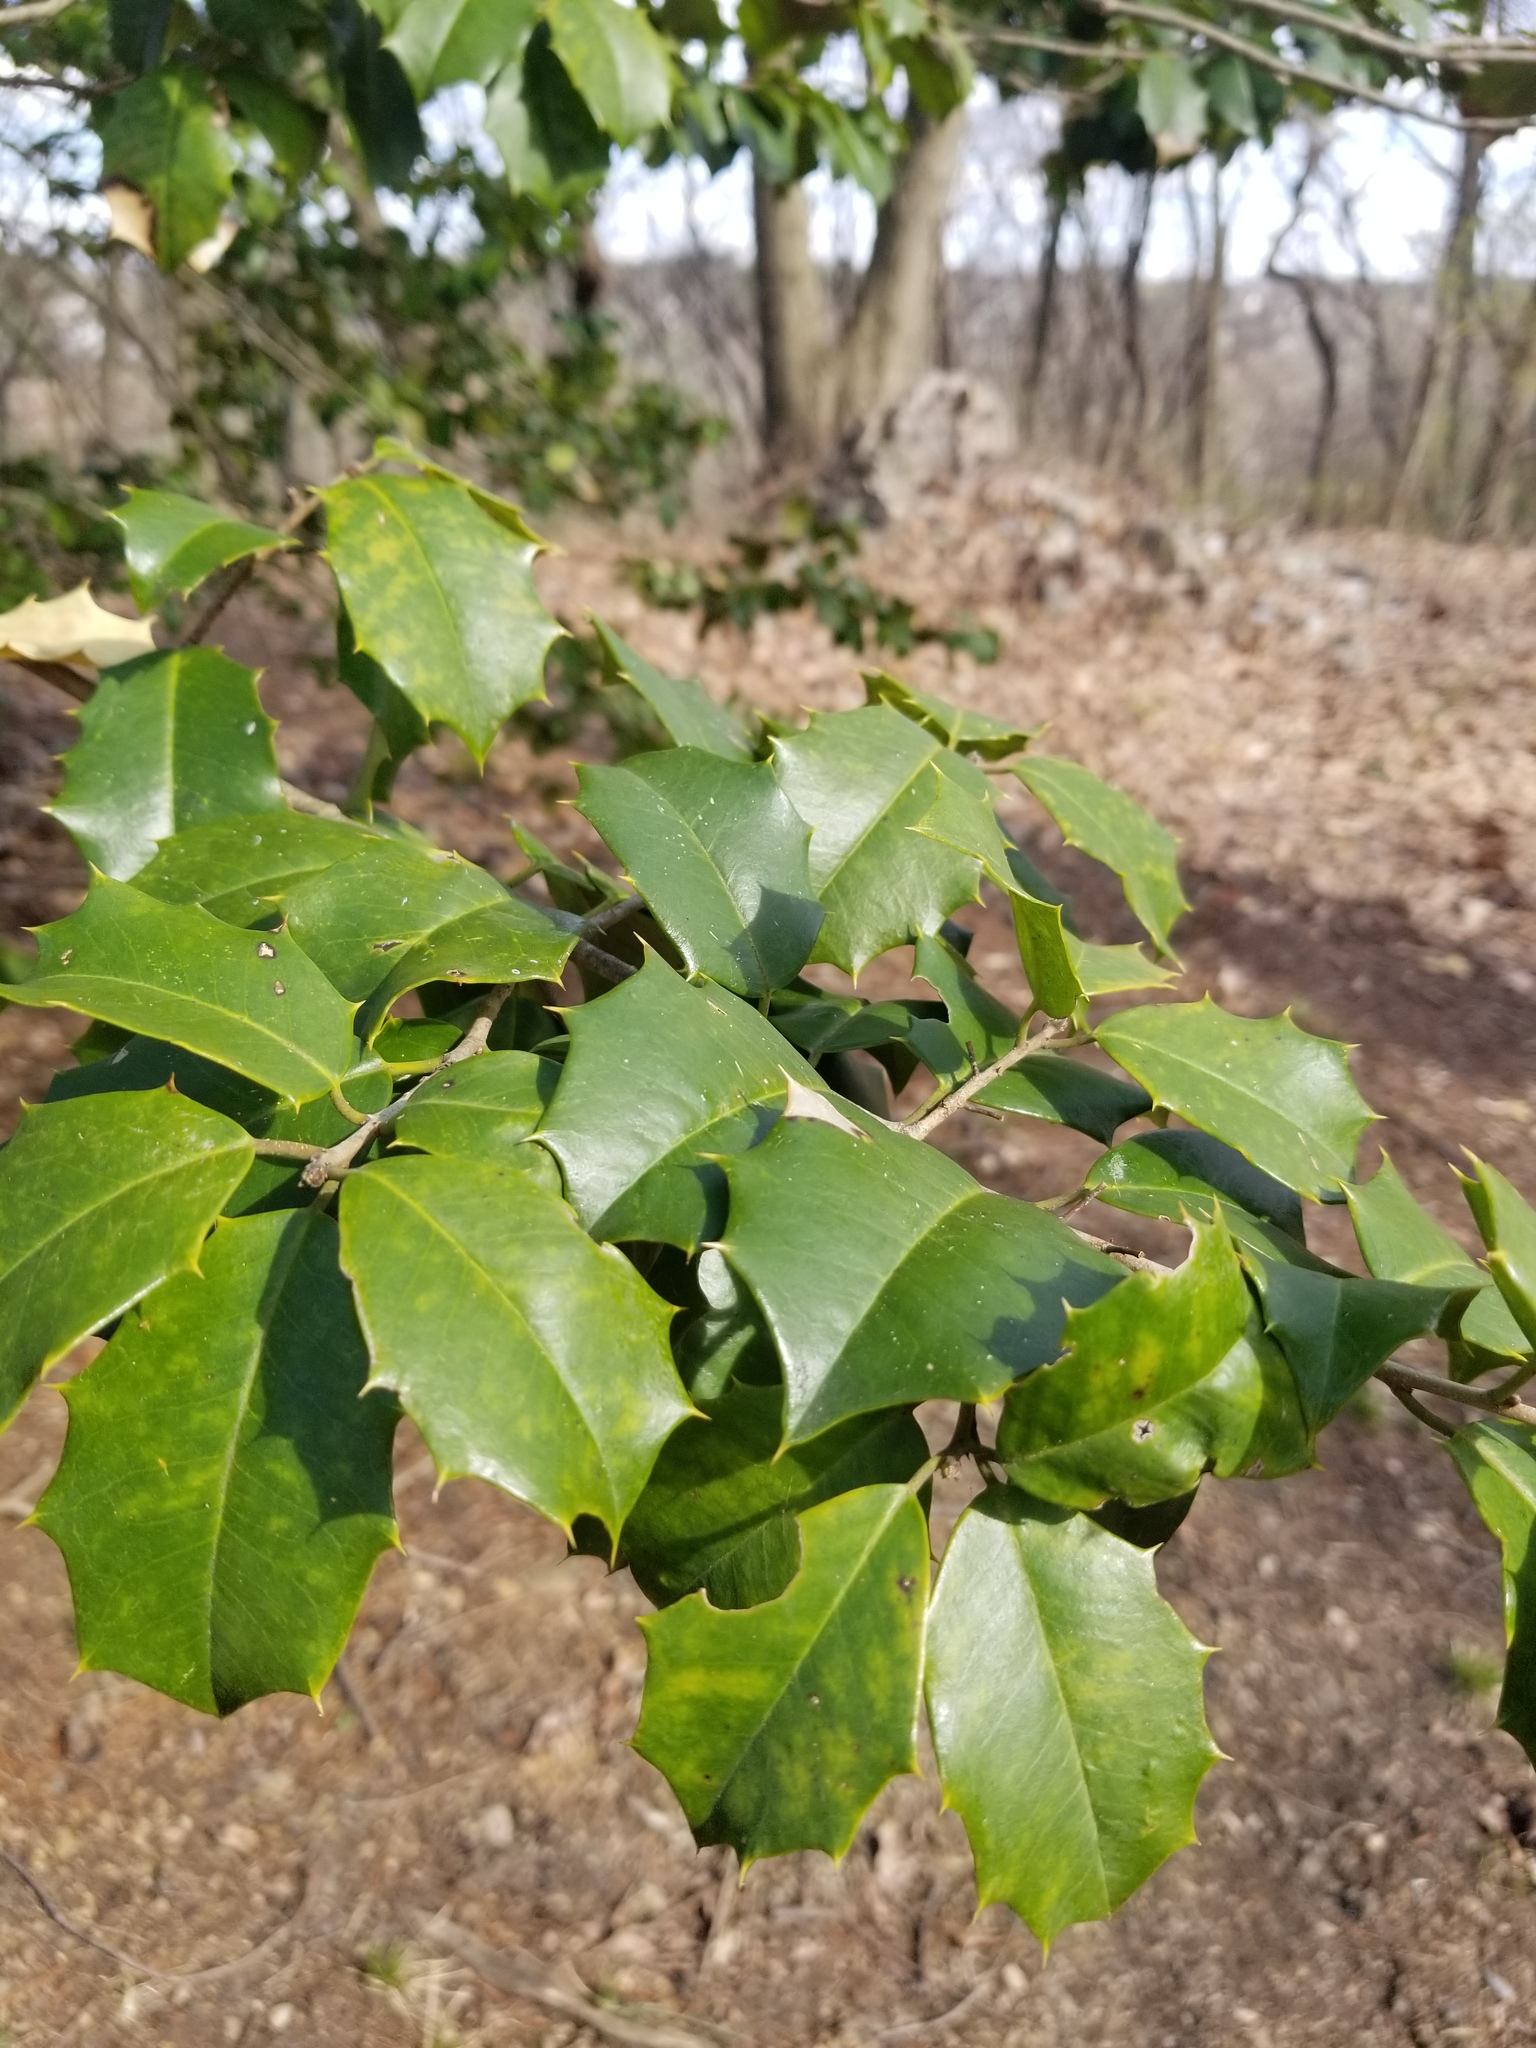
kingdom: Plantae
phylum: Tracheophyta
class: Magnoliopsida
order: Aquifoliales
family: Aquifoliaceae
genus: Ilex
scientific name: Ilex opaca
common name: American holly
